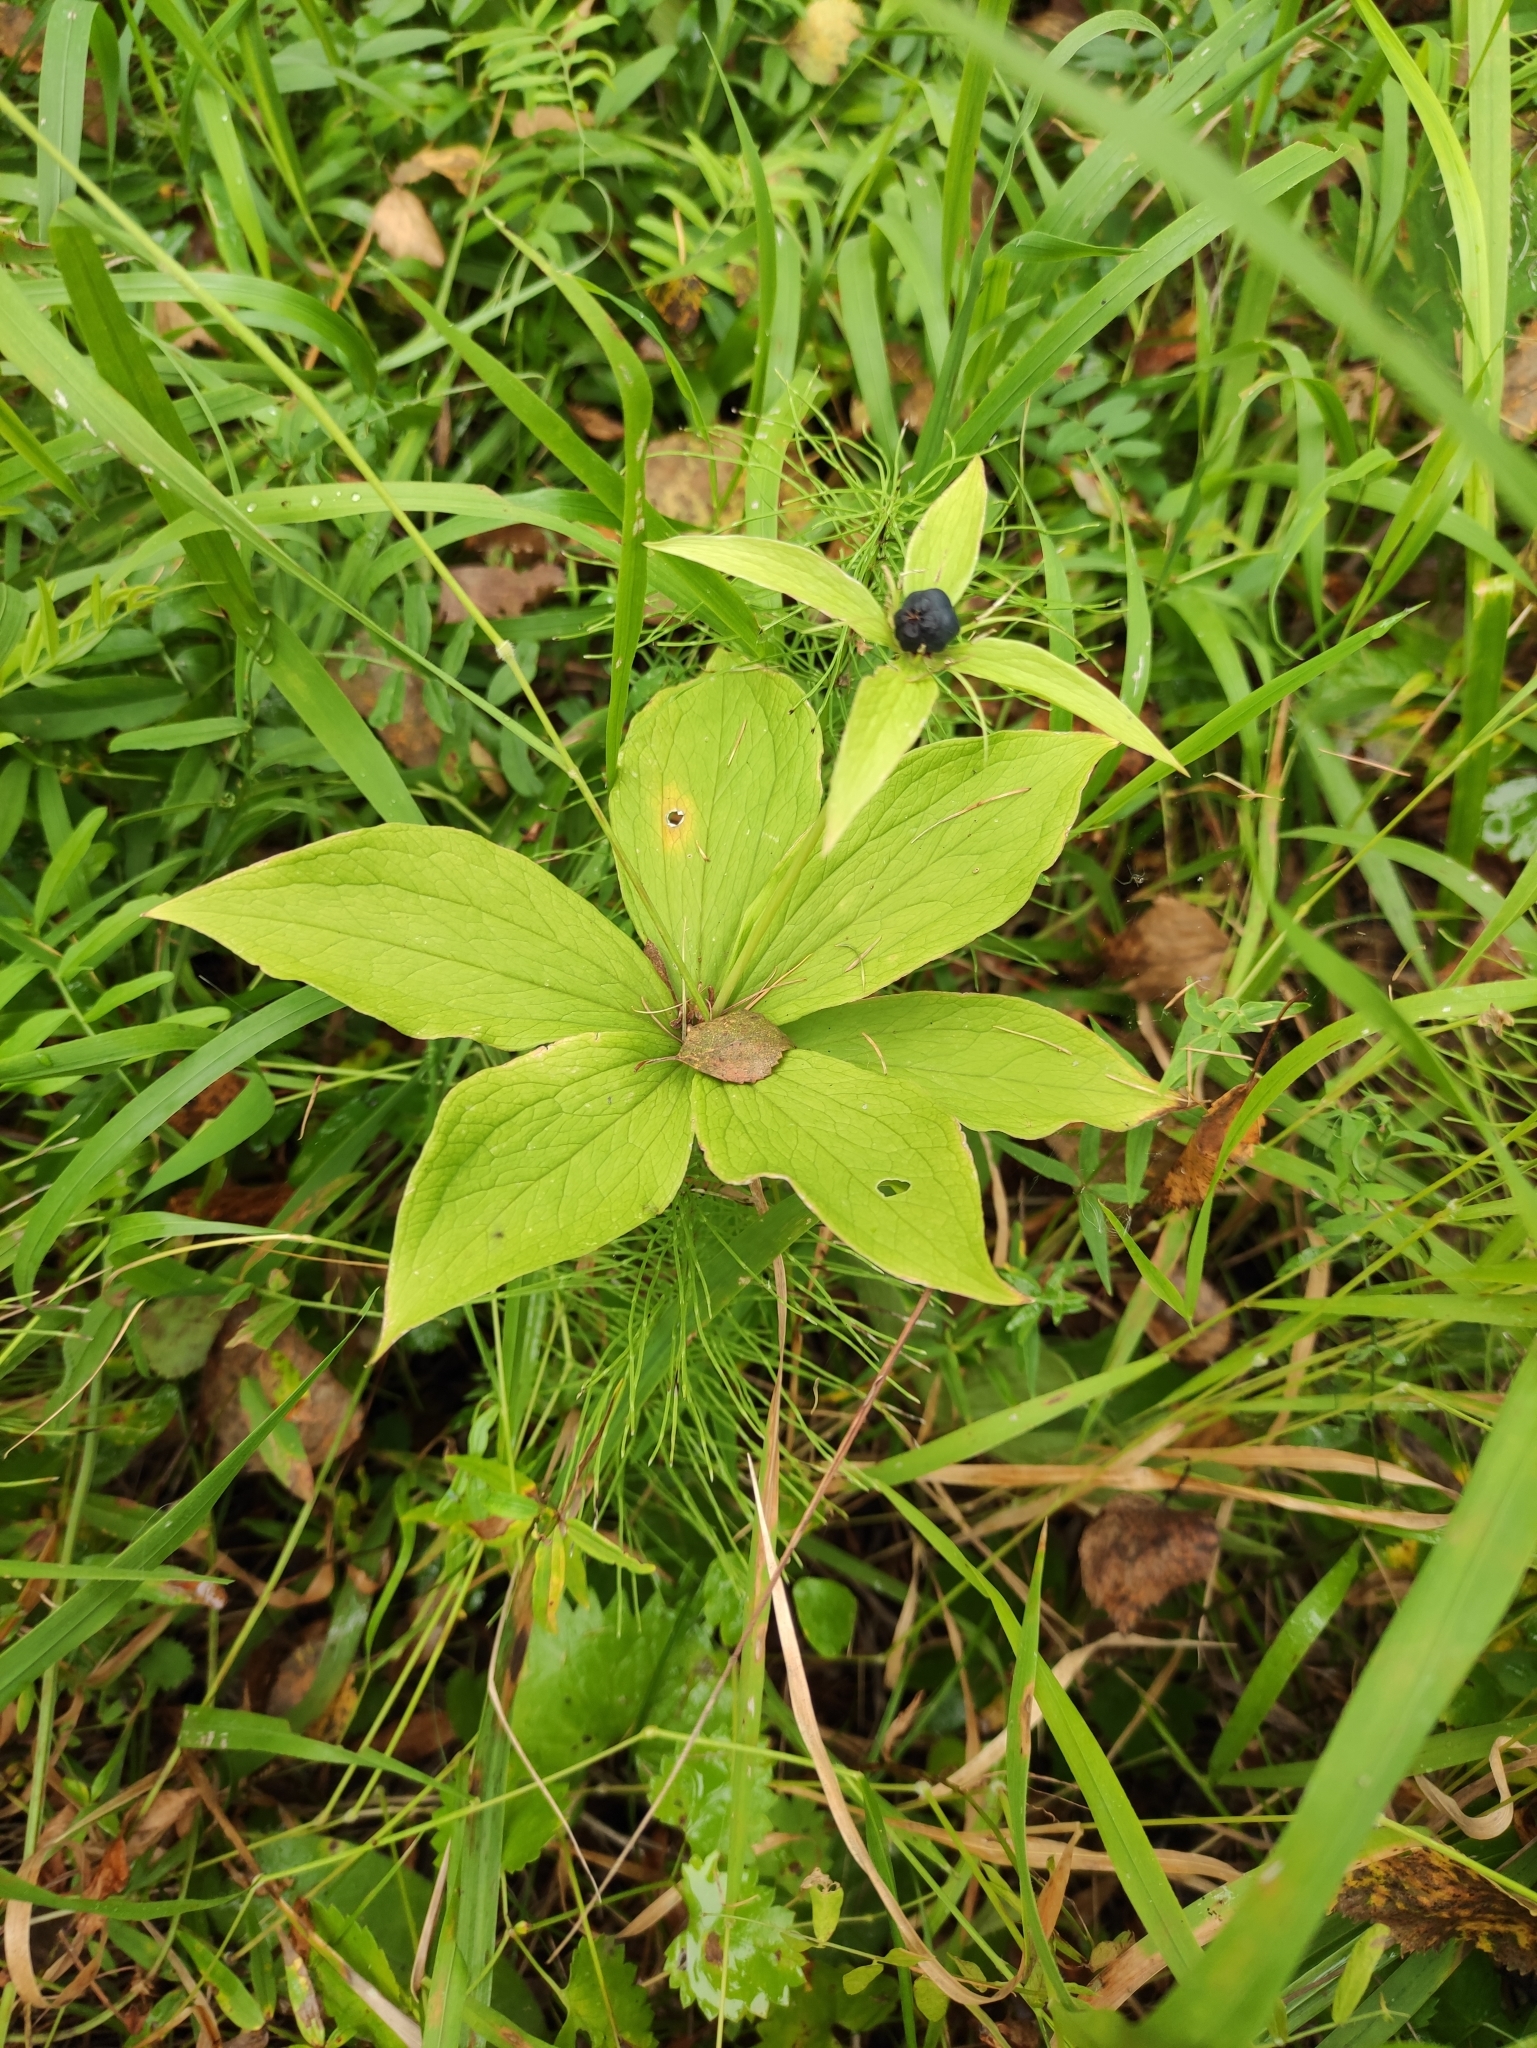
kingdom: Plantae
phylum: Tracheophyta
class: Liliopsida
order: Liliales
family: Melanthiaceae
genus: Paris
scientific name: Paris verticillata
